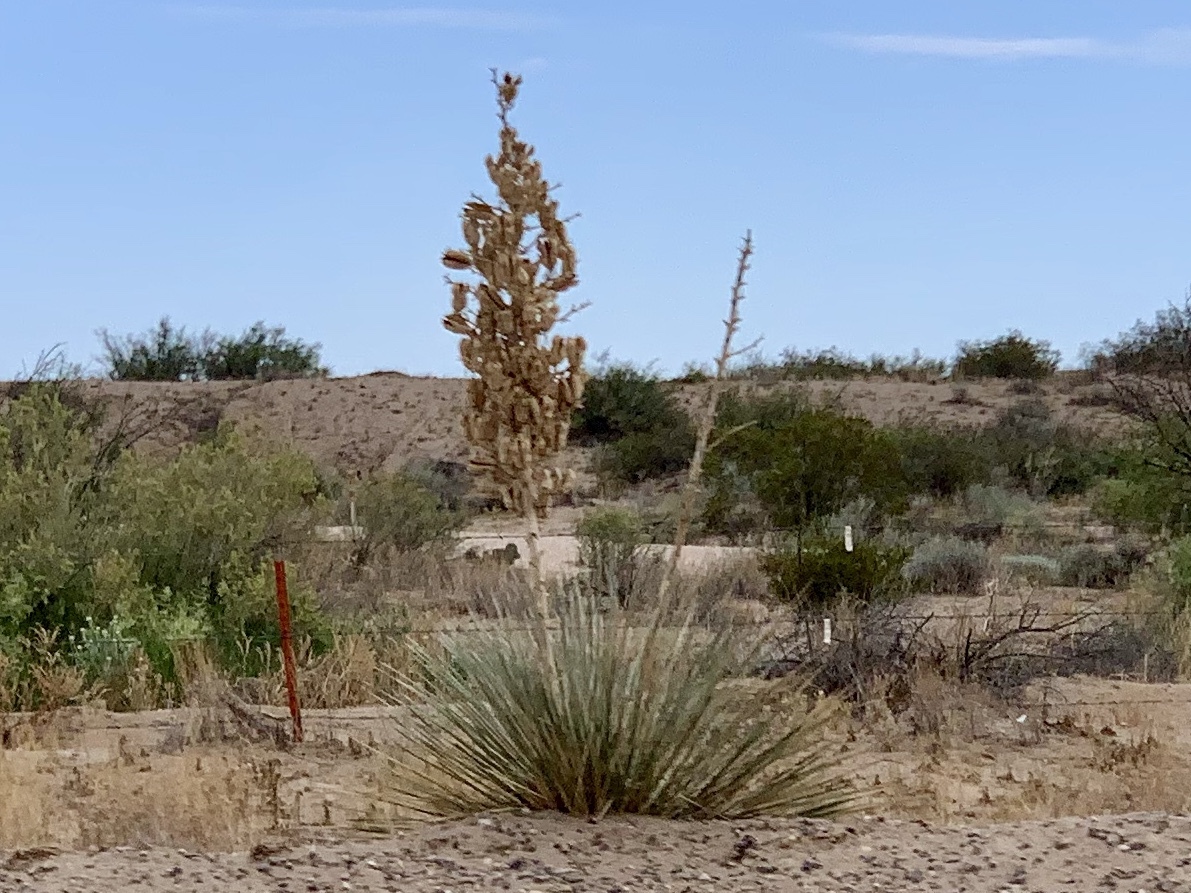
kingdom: Plantae
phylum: Tracheophyta
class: Liliopsida
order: Asparagales
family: Asparagaceae
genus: Yucca
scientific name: Yucca elata
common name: Palmella
